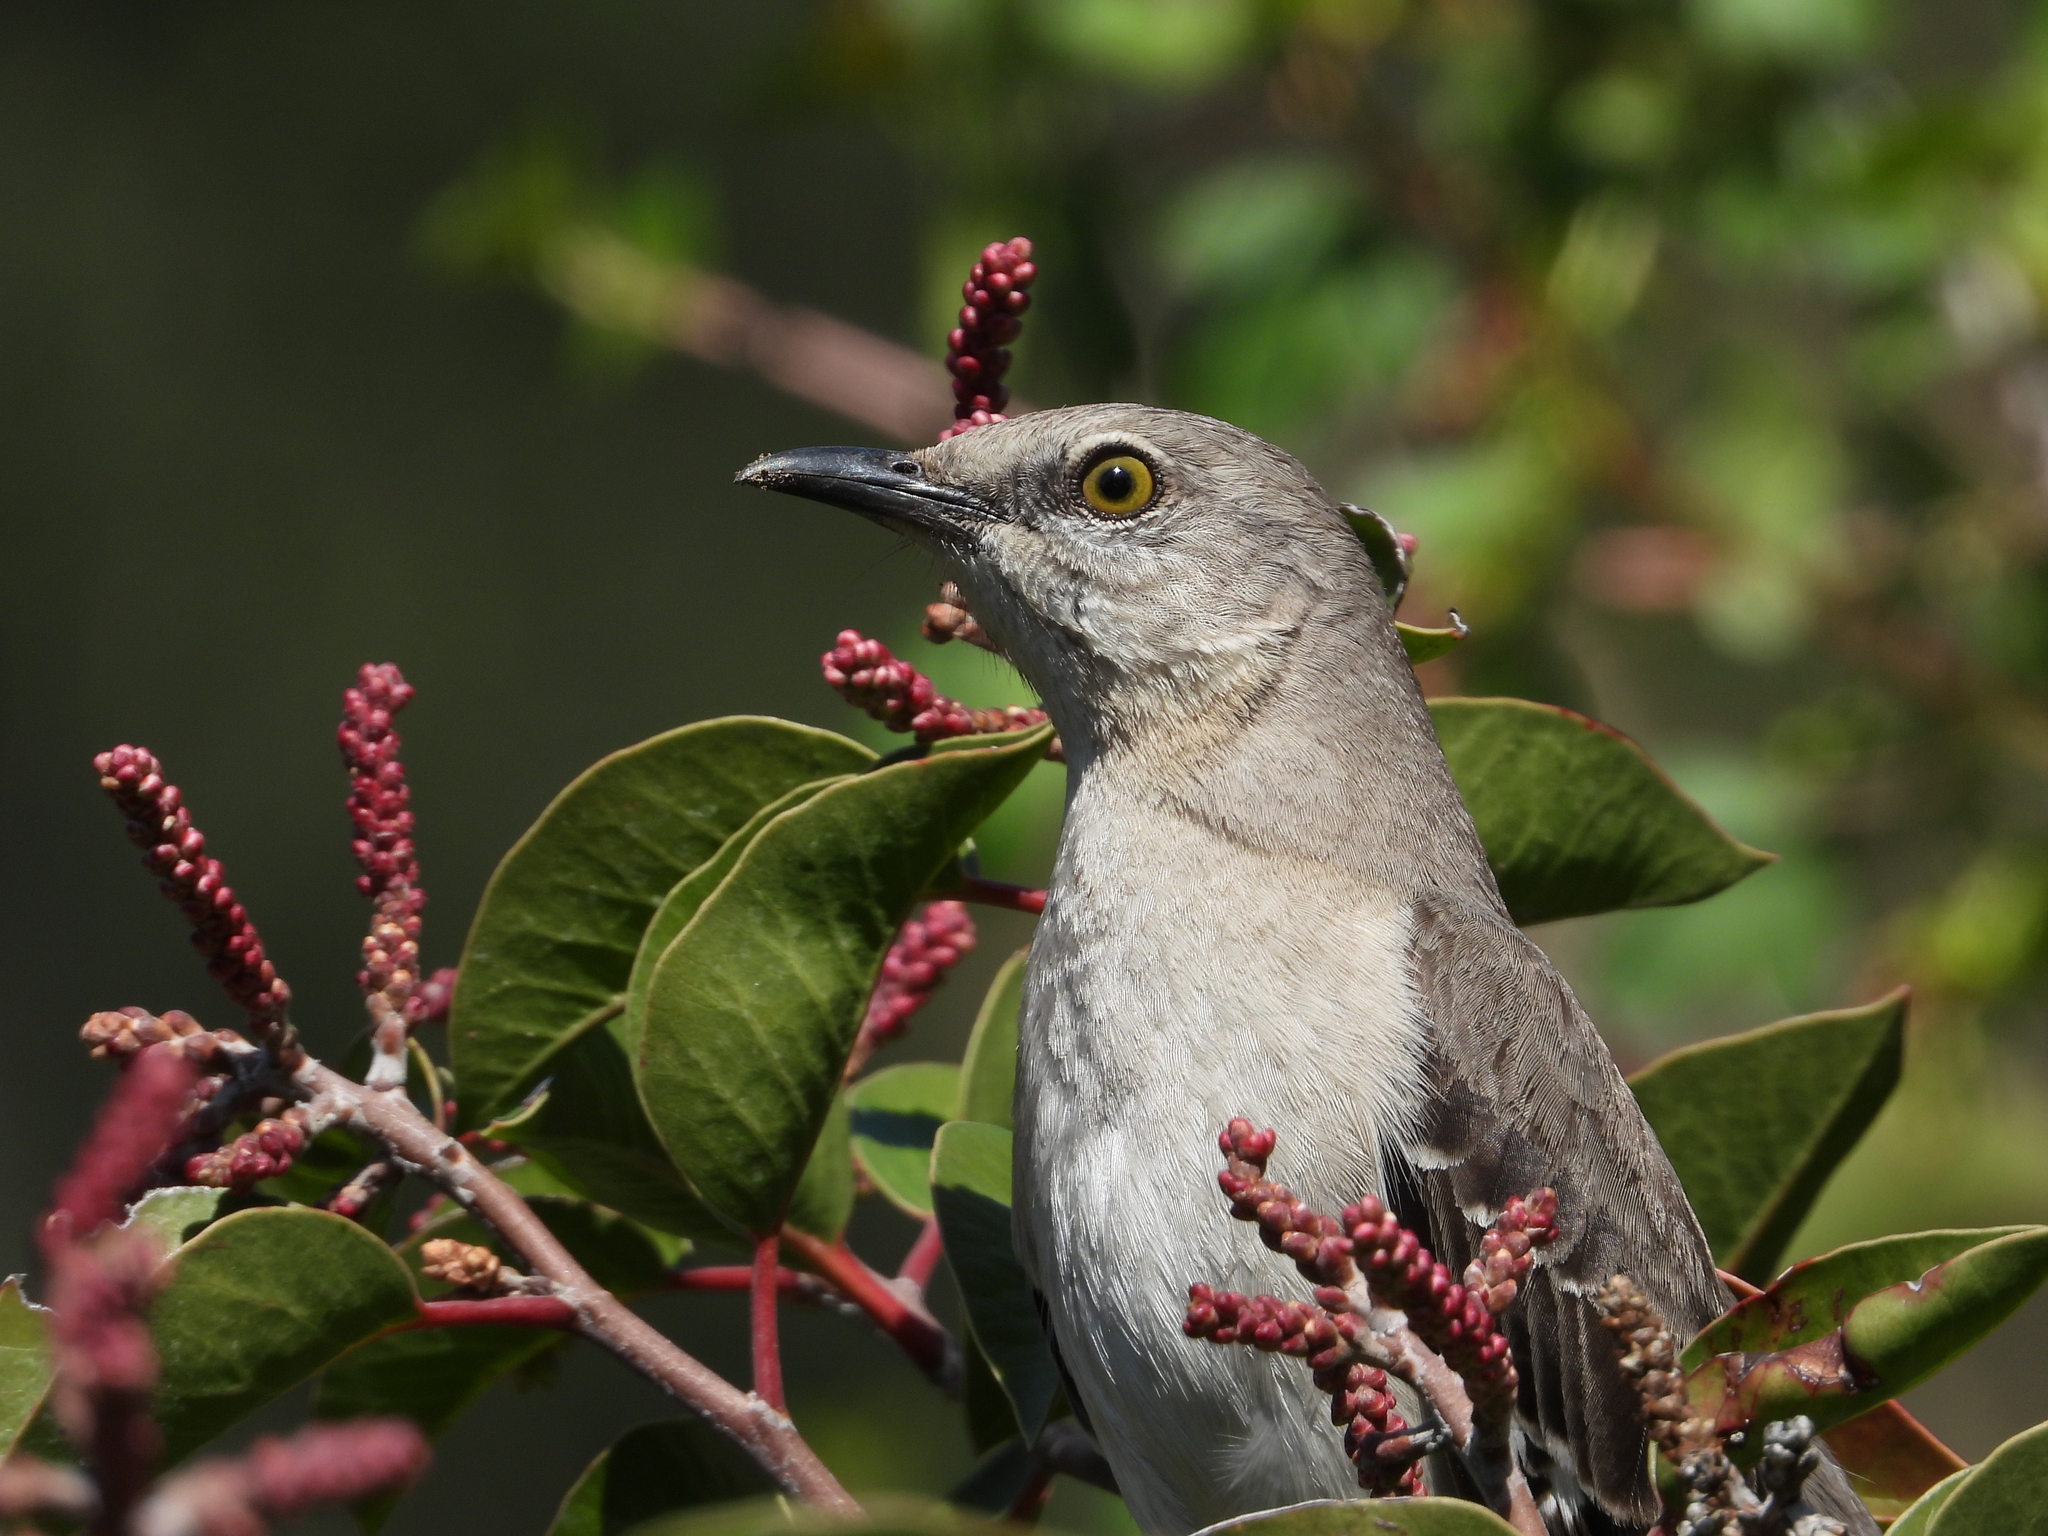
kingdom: Animalia
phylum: Chordata
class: Aves
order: Passeriformes
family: Mimidae
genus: Mimus
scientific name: Mimus polyglottos
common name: Northern mockingbird
